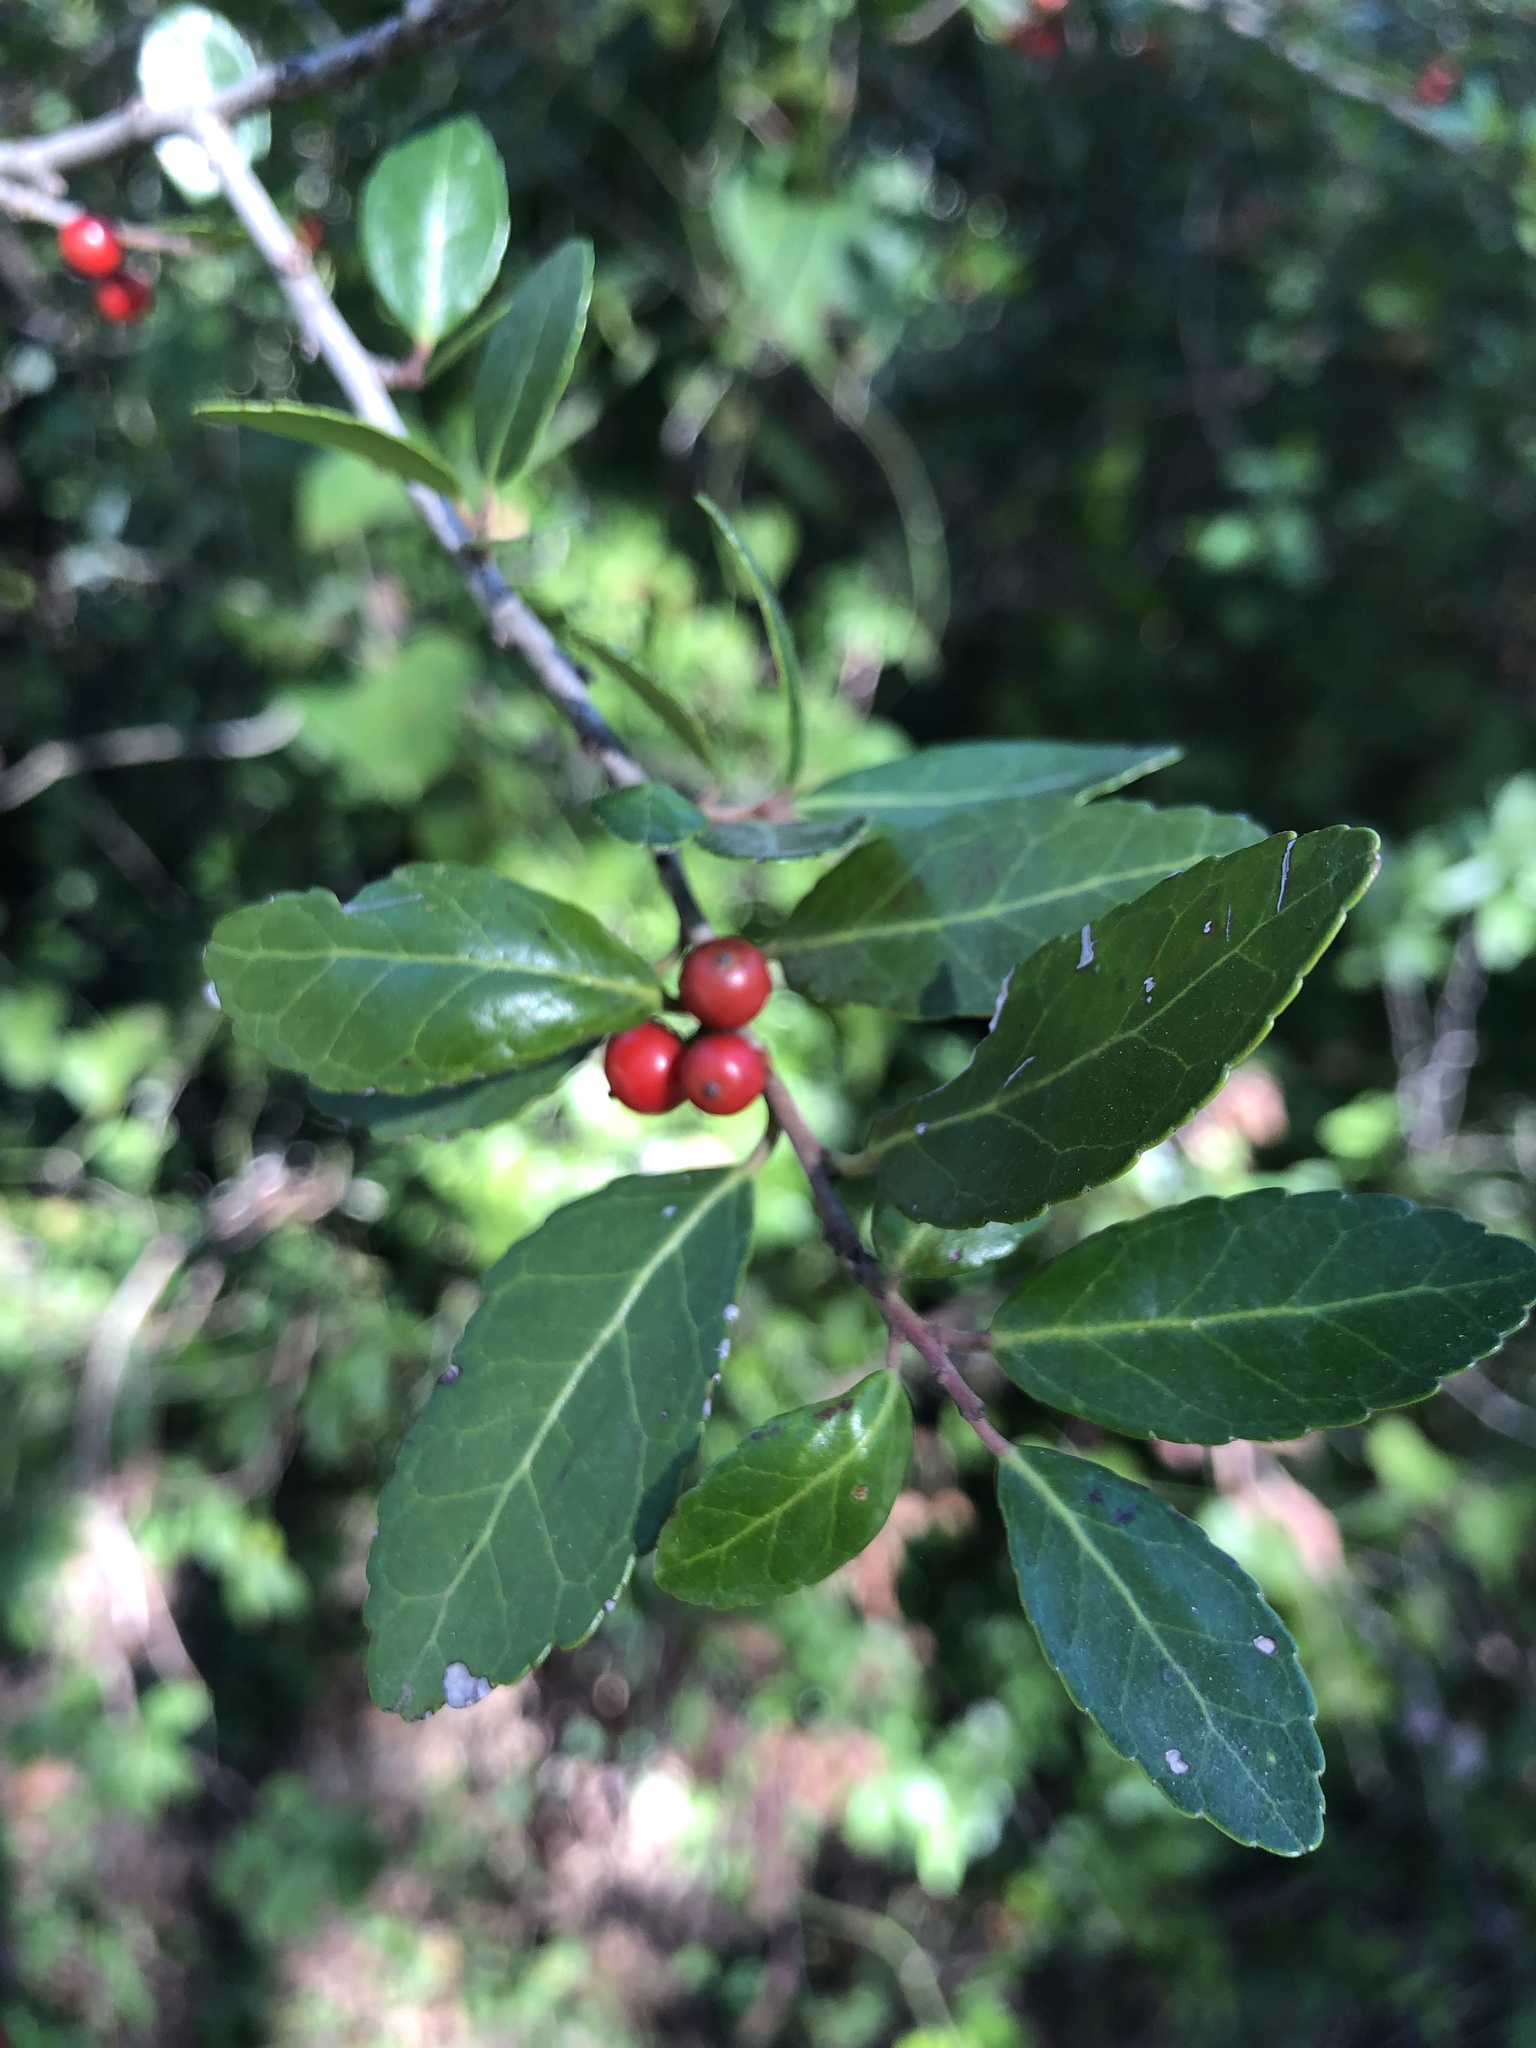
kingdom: Plantae
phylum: Tracheophyta
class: Magnoliopsida
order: Aquifoliales
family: Aquifoliaceae
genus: Ilex
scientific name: Ilex vomitoria
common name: Yaupon holly
